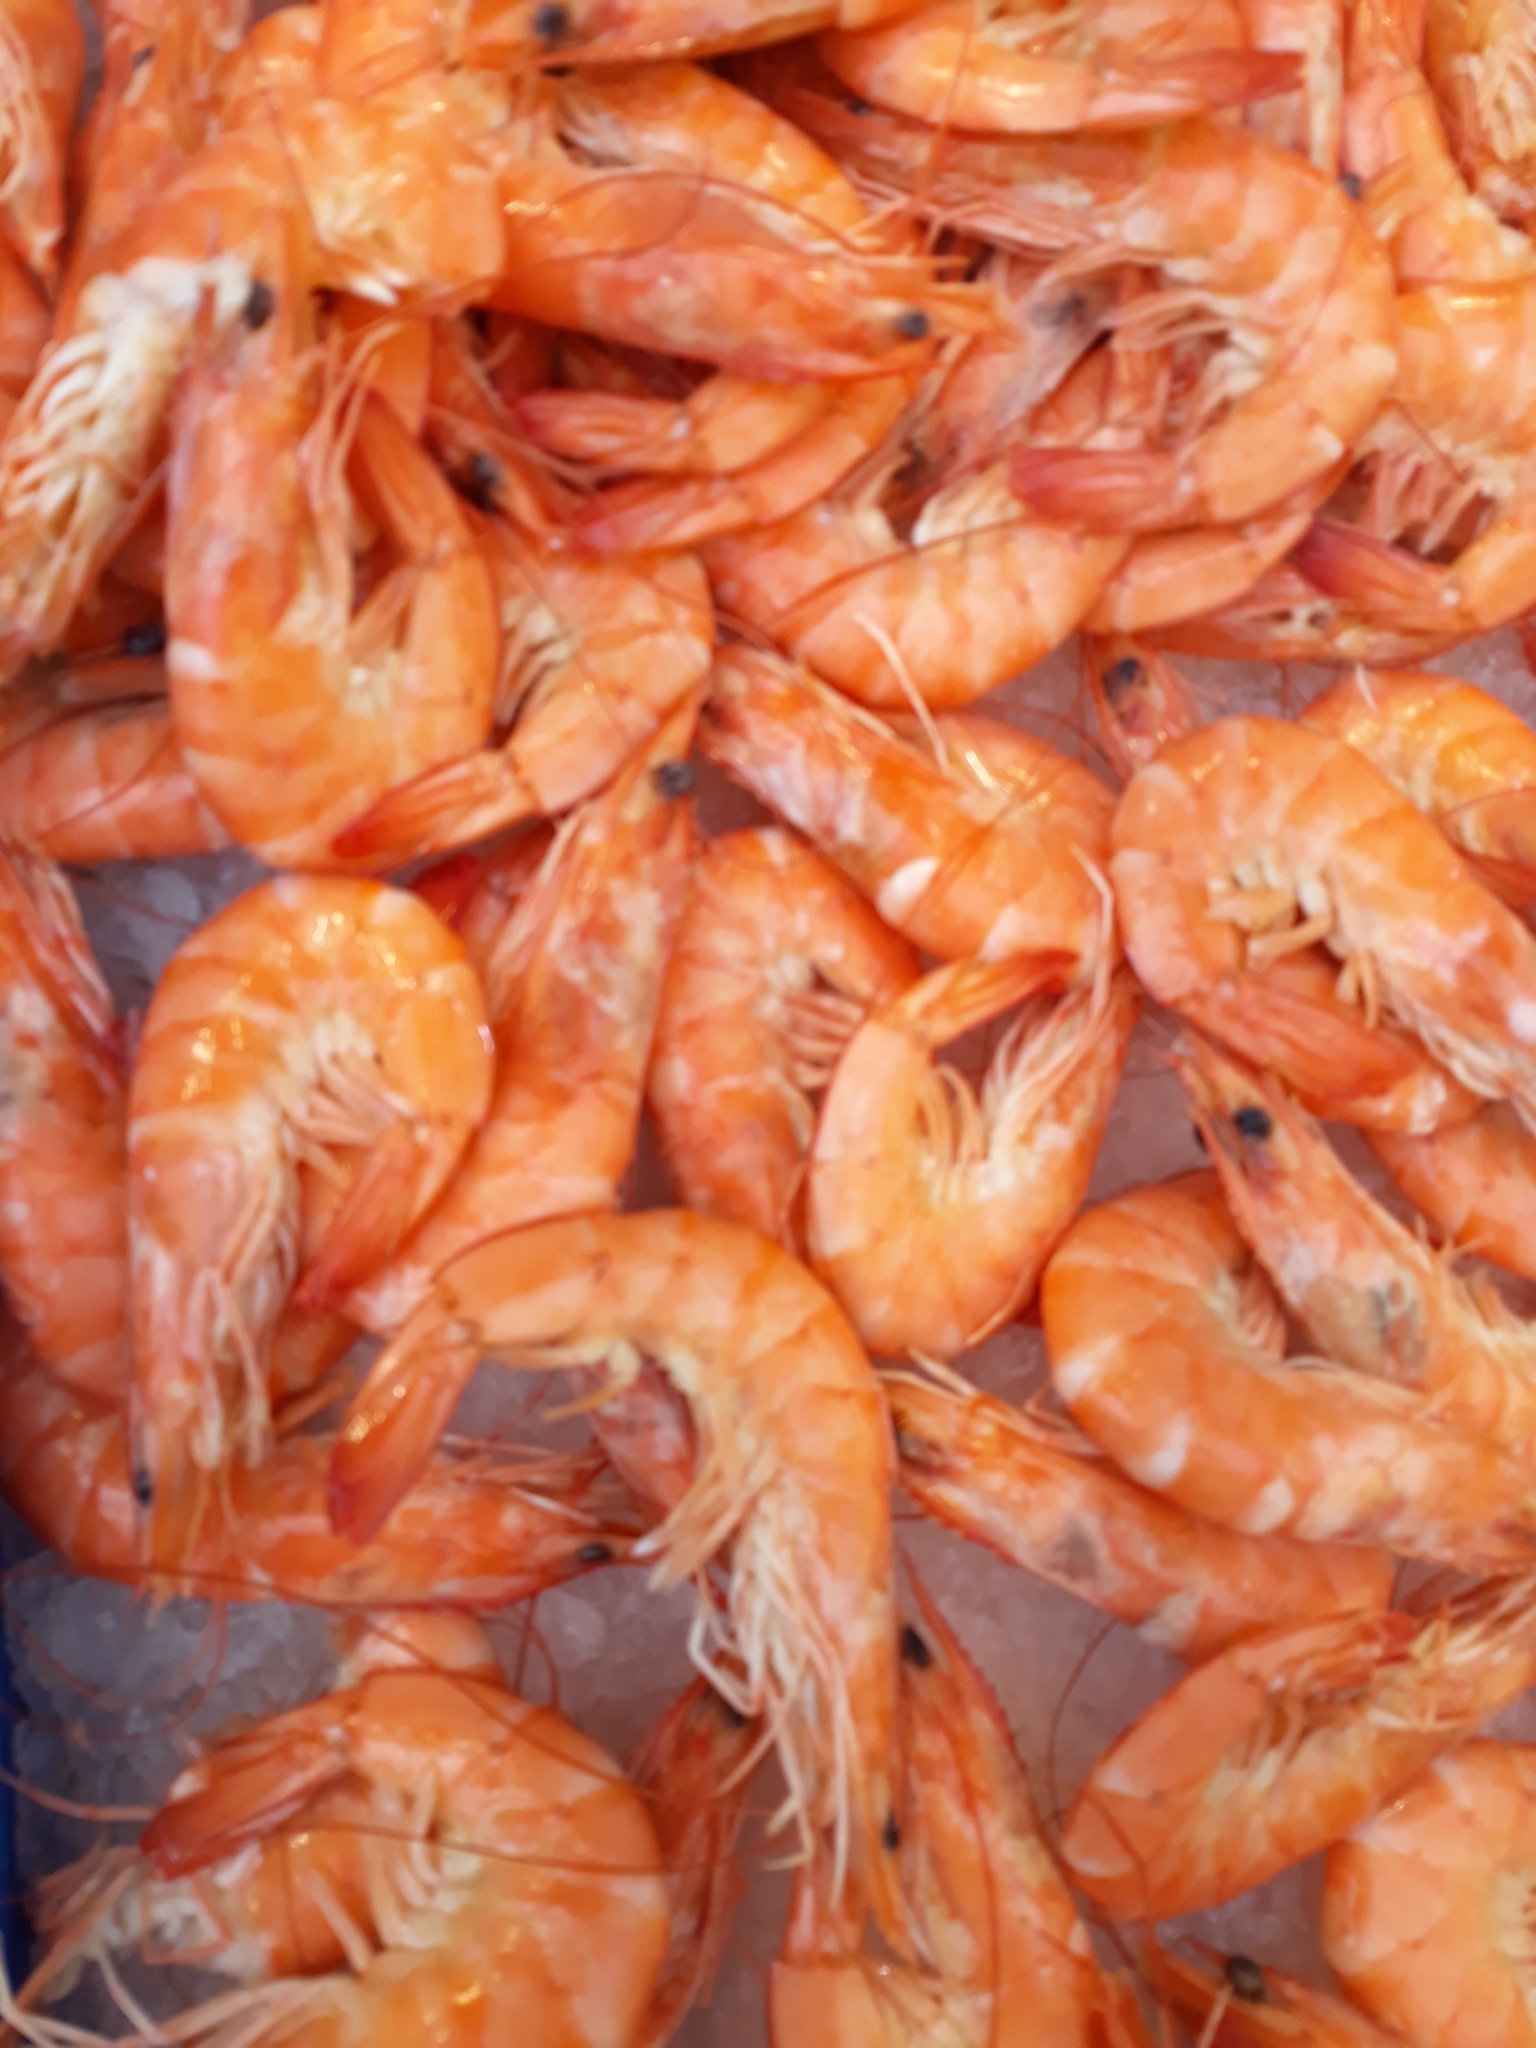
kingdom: Animalia
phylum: Arthropoda
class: Malacostraca
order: Decapoda
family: Penaeidae
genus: Penaeus
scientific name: Penaeus vannamei
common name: Whiteleg shrimp
